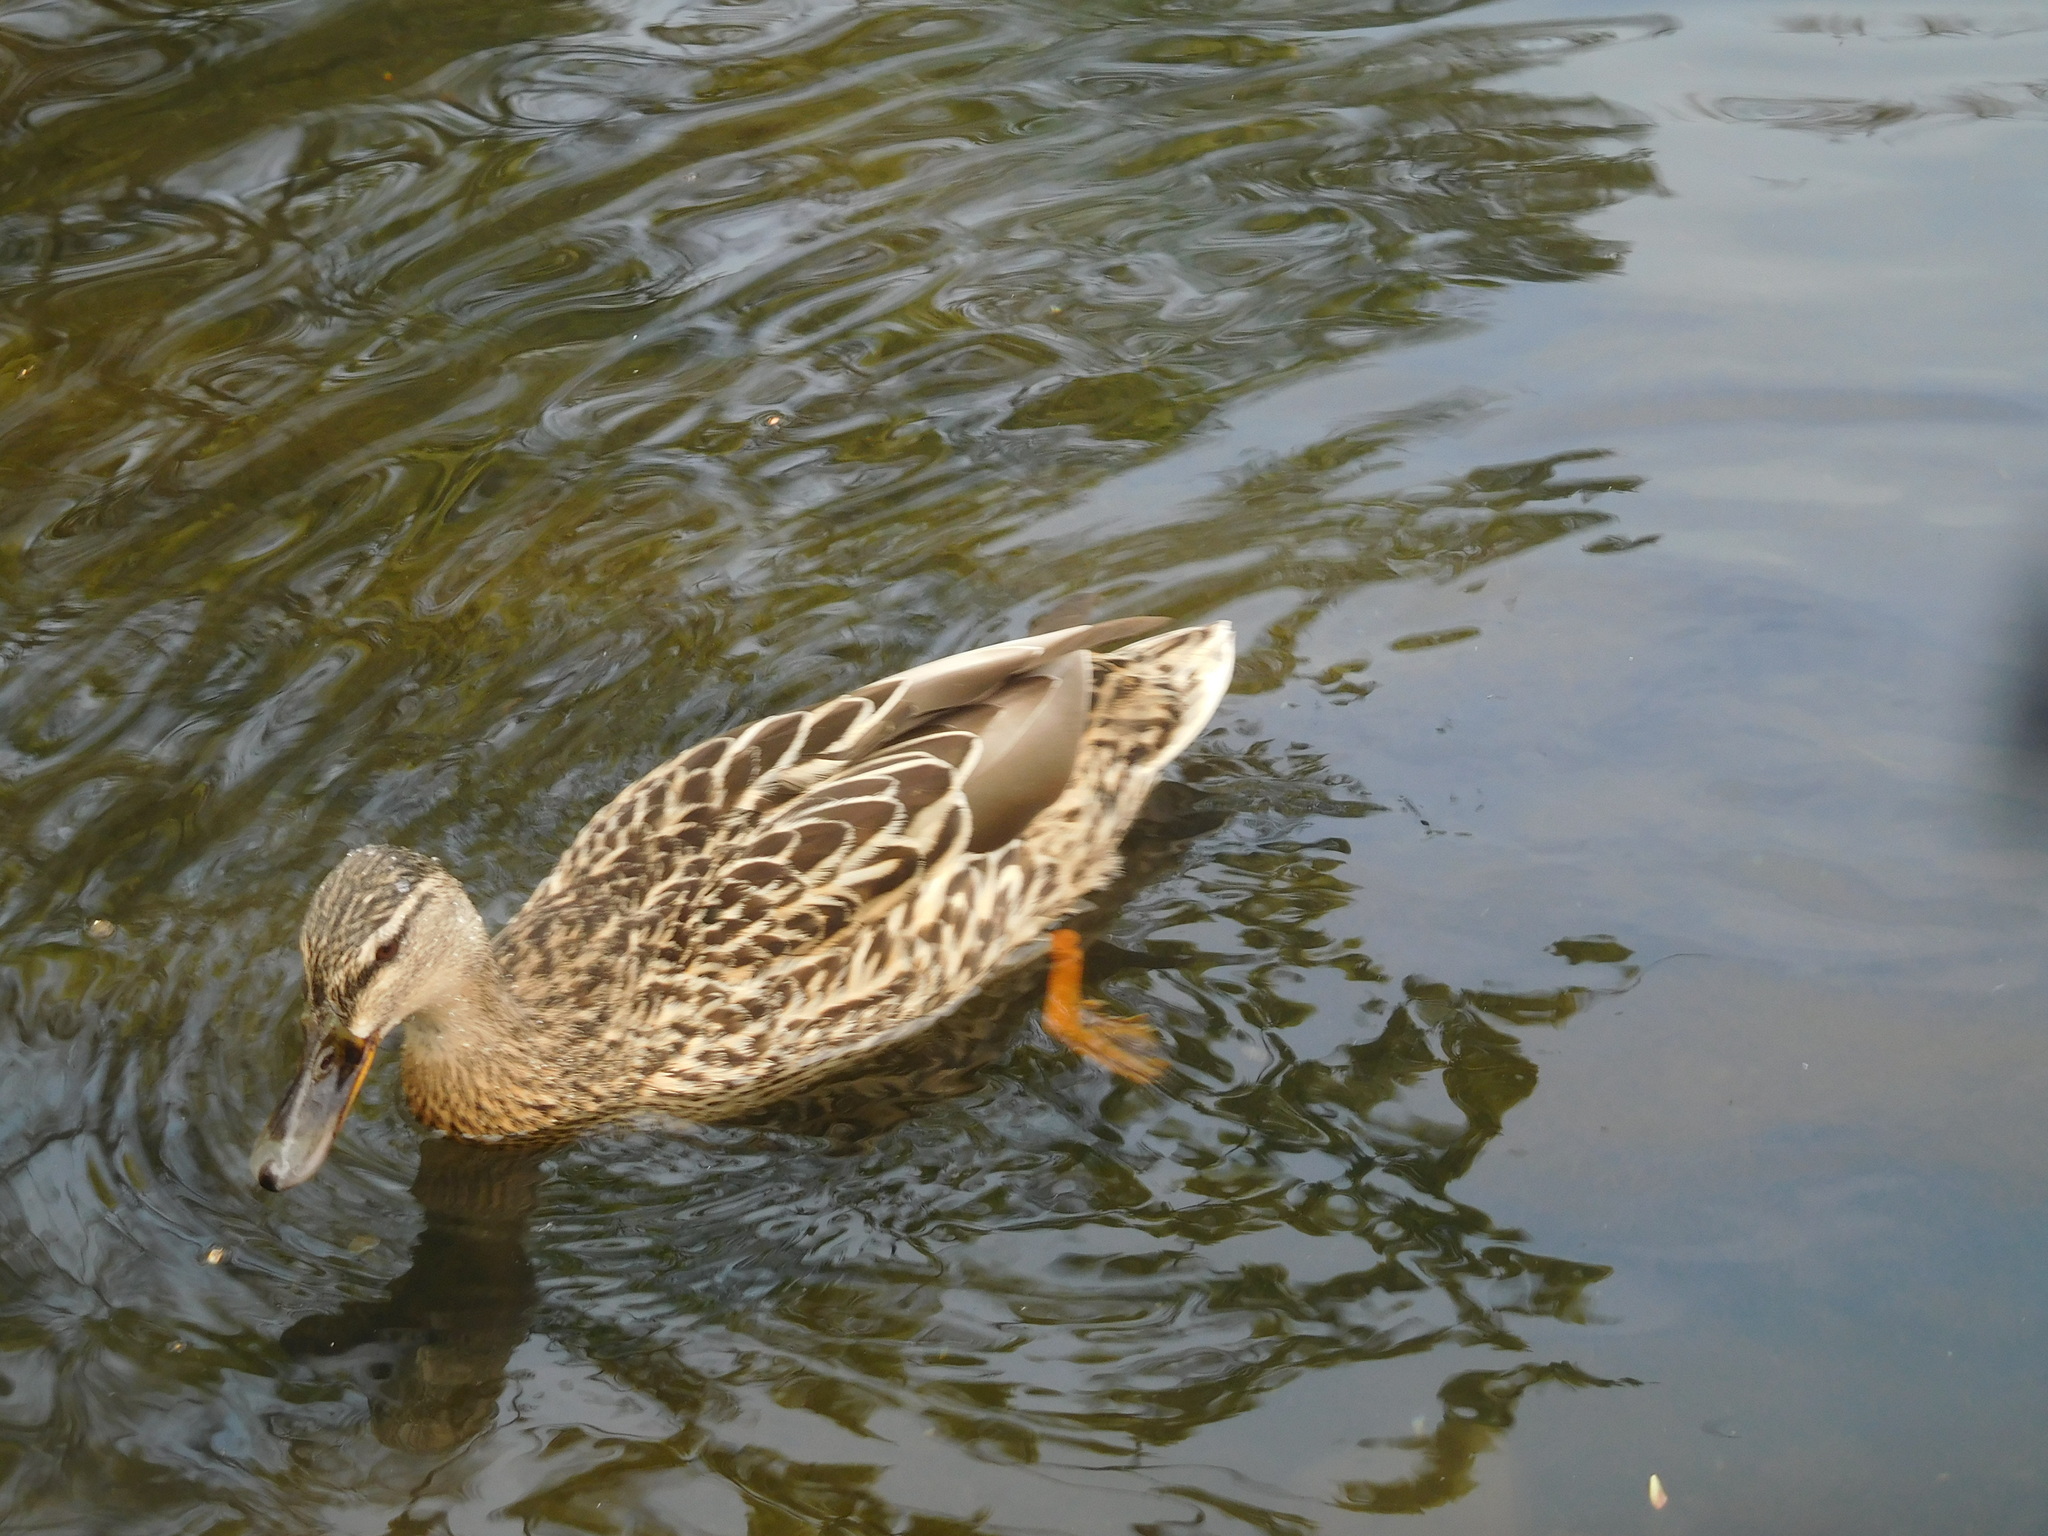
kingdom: Animalia
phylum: Chordata
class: Aves
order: Anseriformes
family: Anatidae
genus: Anas
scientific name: Anas platyrhynchos
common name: Mallard
